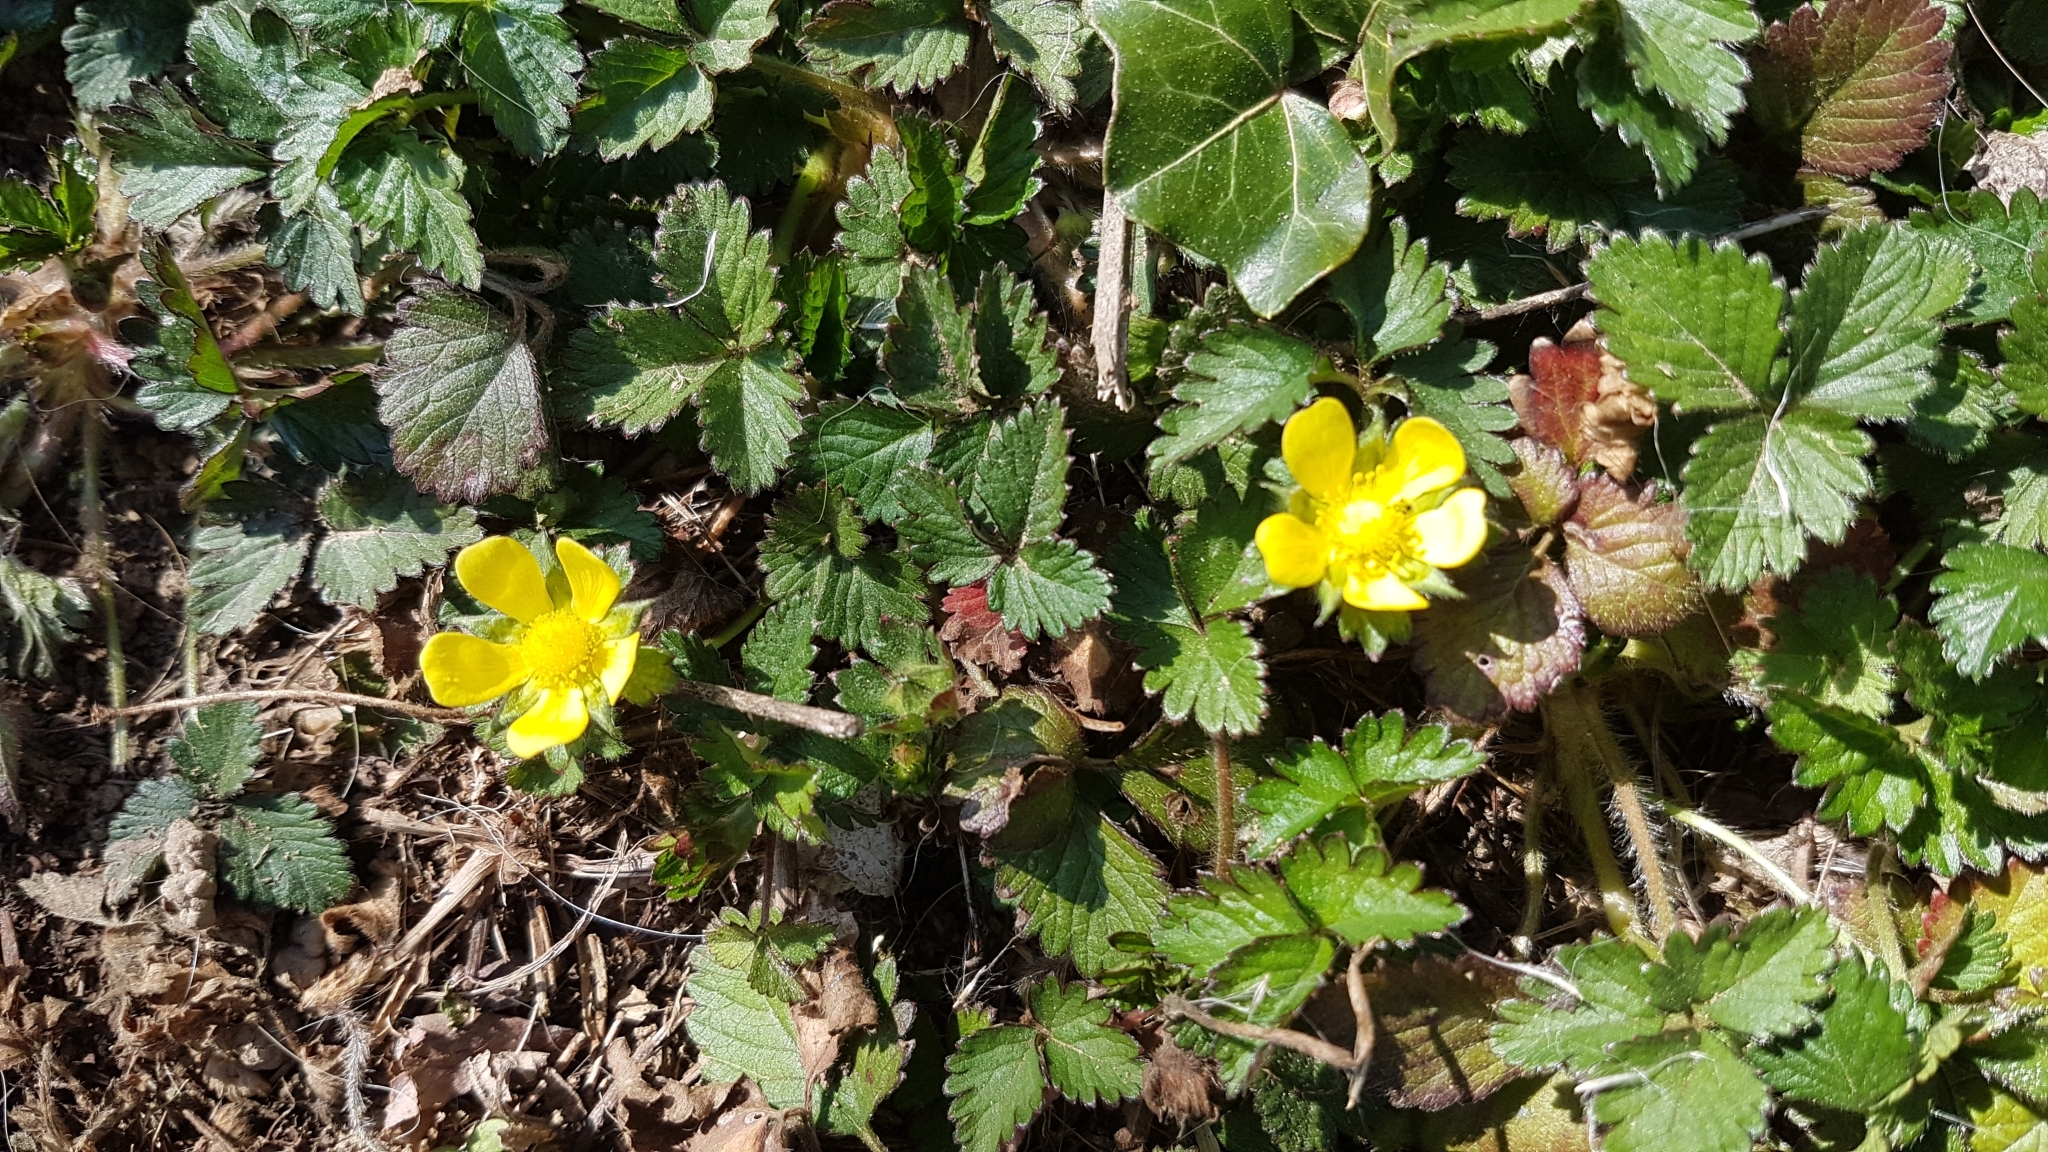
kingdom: Plantae
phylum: Tracheophyta
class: Magnoliopsida
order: Rosales
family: Rosaceae
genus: Potentilla
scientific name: Potentilla indica
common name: Yellow-flowered strawberry
